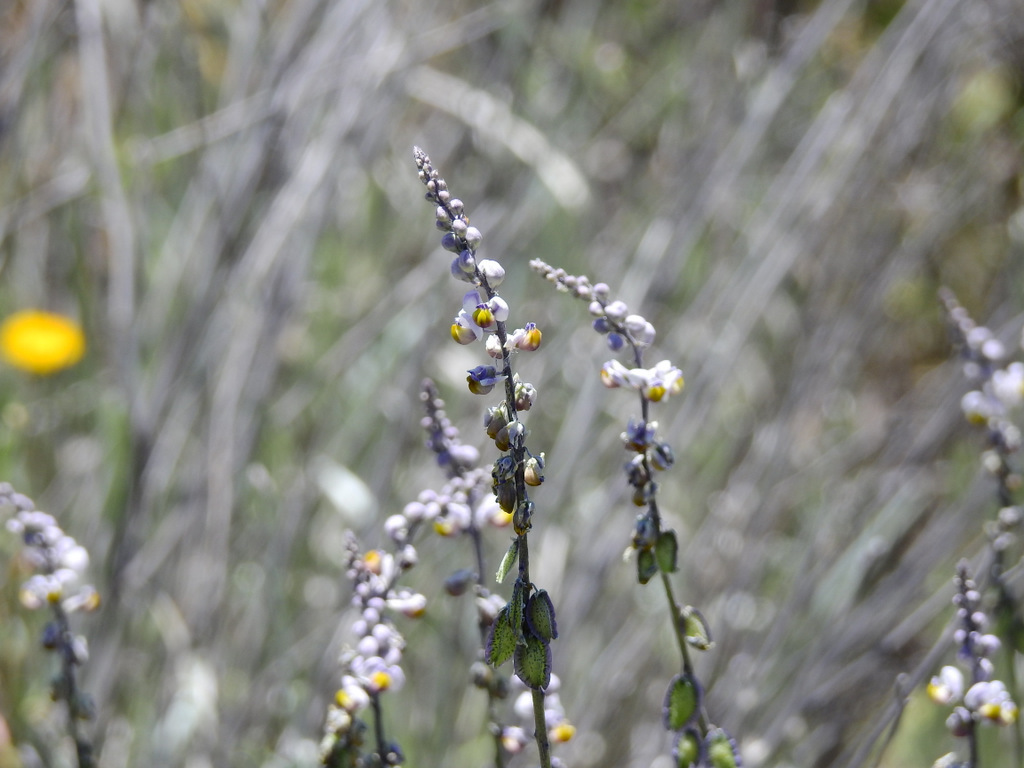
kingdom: Plantae
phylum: Tracheophyta
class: Magnoliopsida
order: Fabales
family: Polygalaceae
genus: Monnina
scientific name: Monnina dictyocarpa
